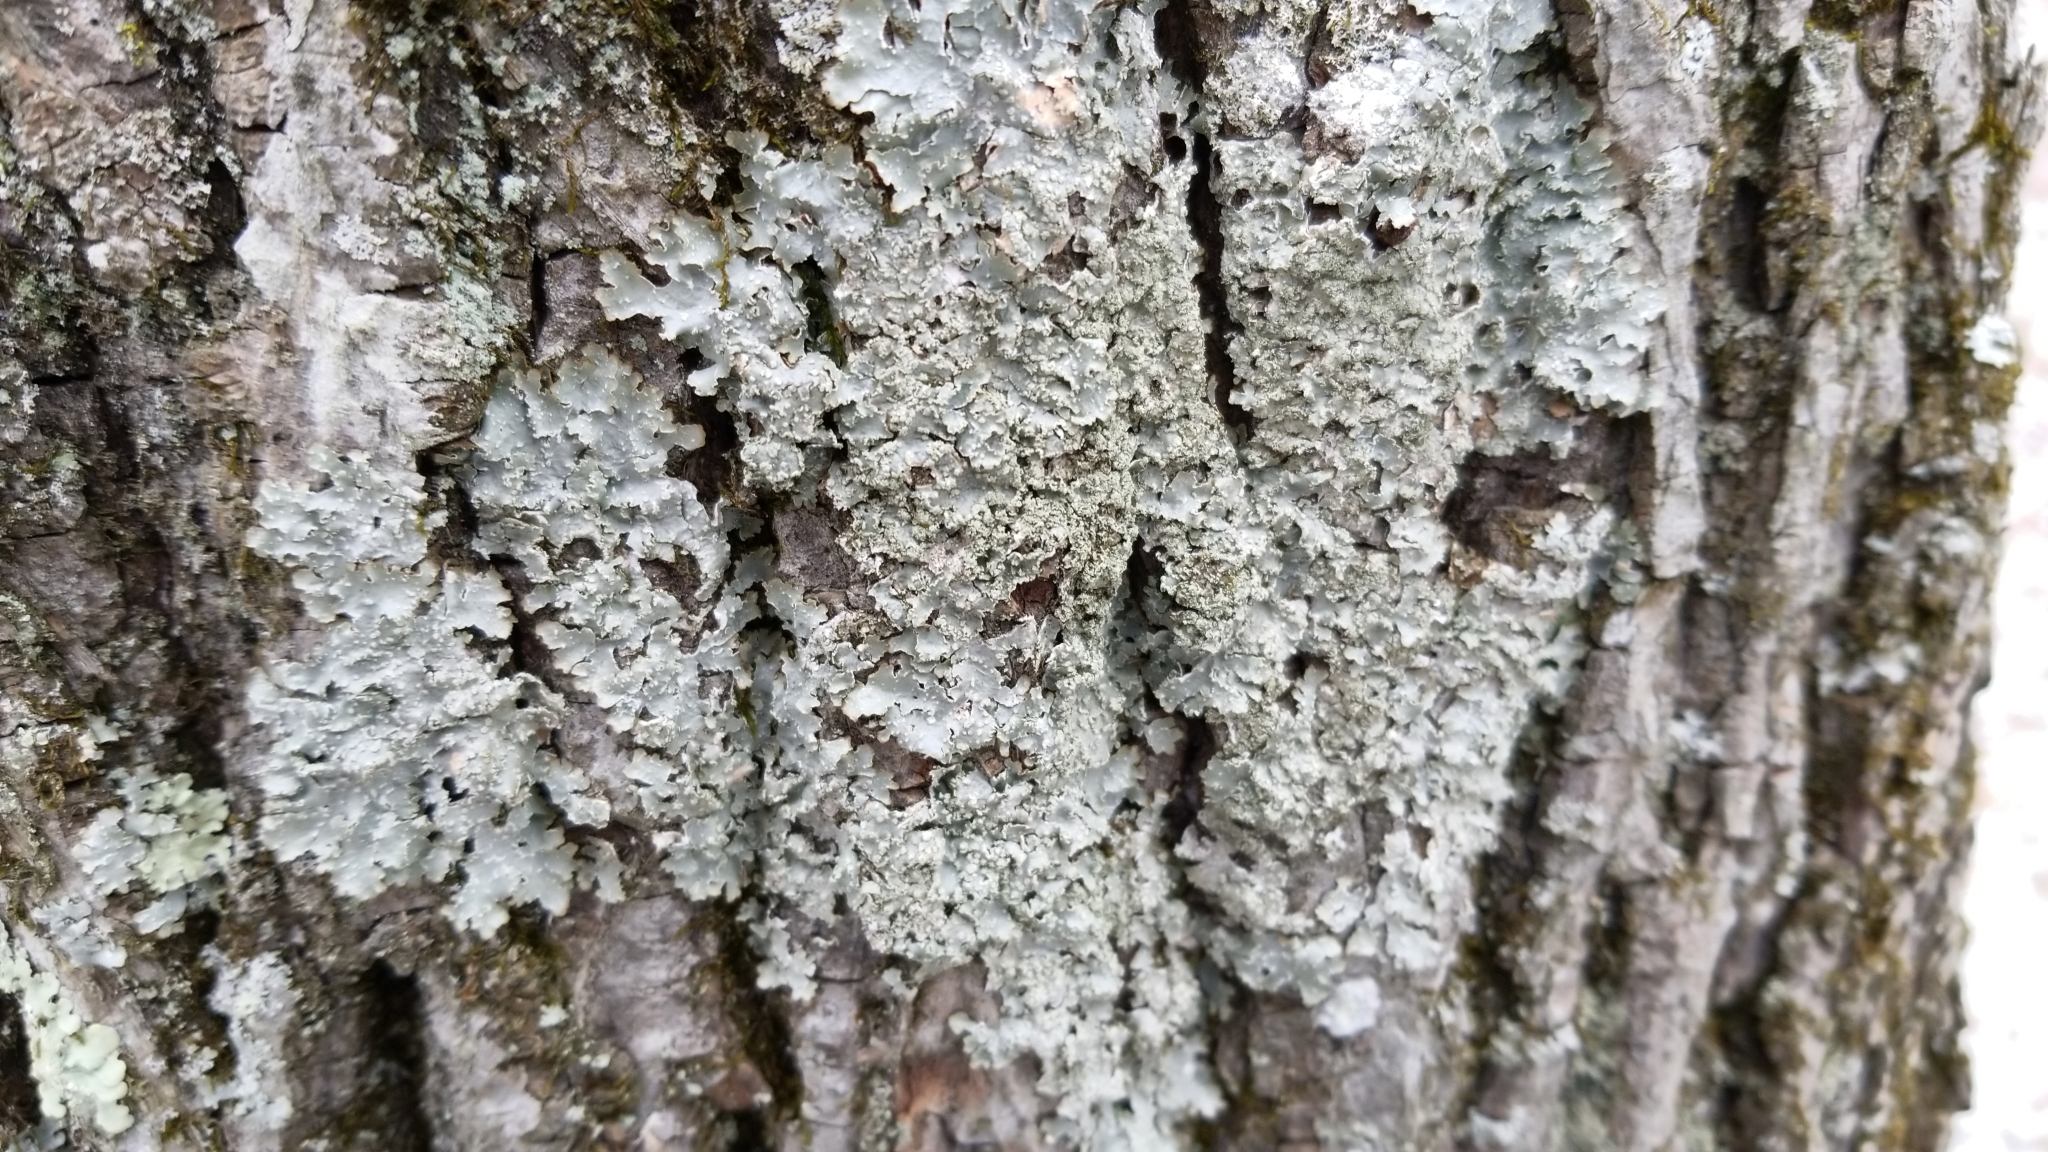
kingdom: Fungi
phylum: Ascomycota
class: Lecanoromycetes
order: Lecanorales
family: Parmeliaceae
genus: Flavoparmelia
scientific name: Flavoparmelia caperata
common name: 40-mile per hour lichen
